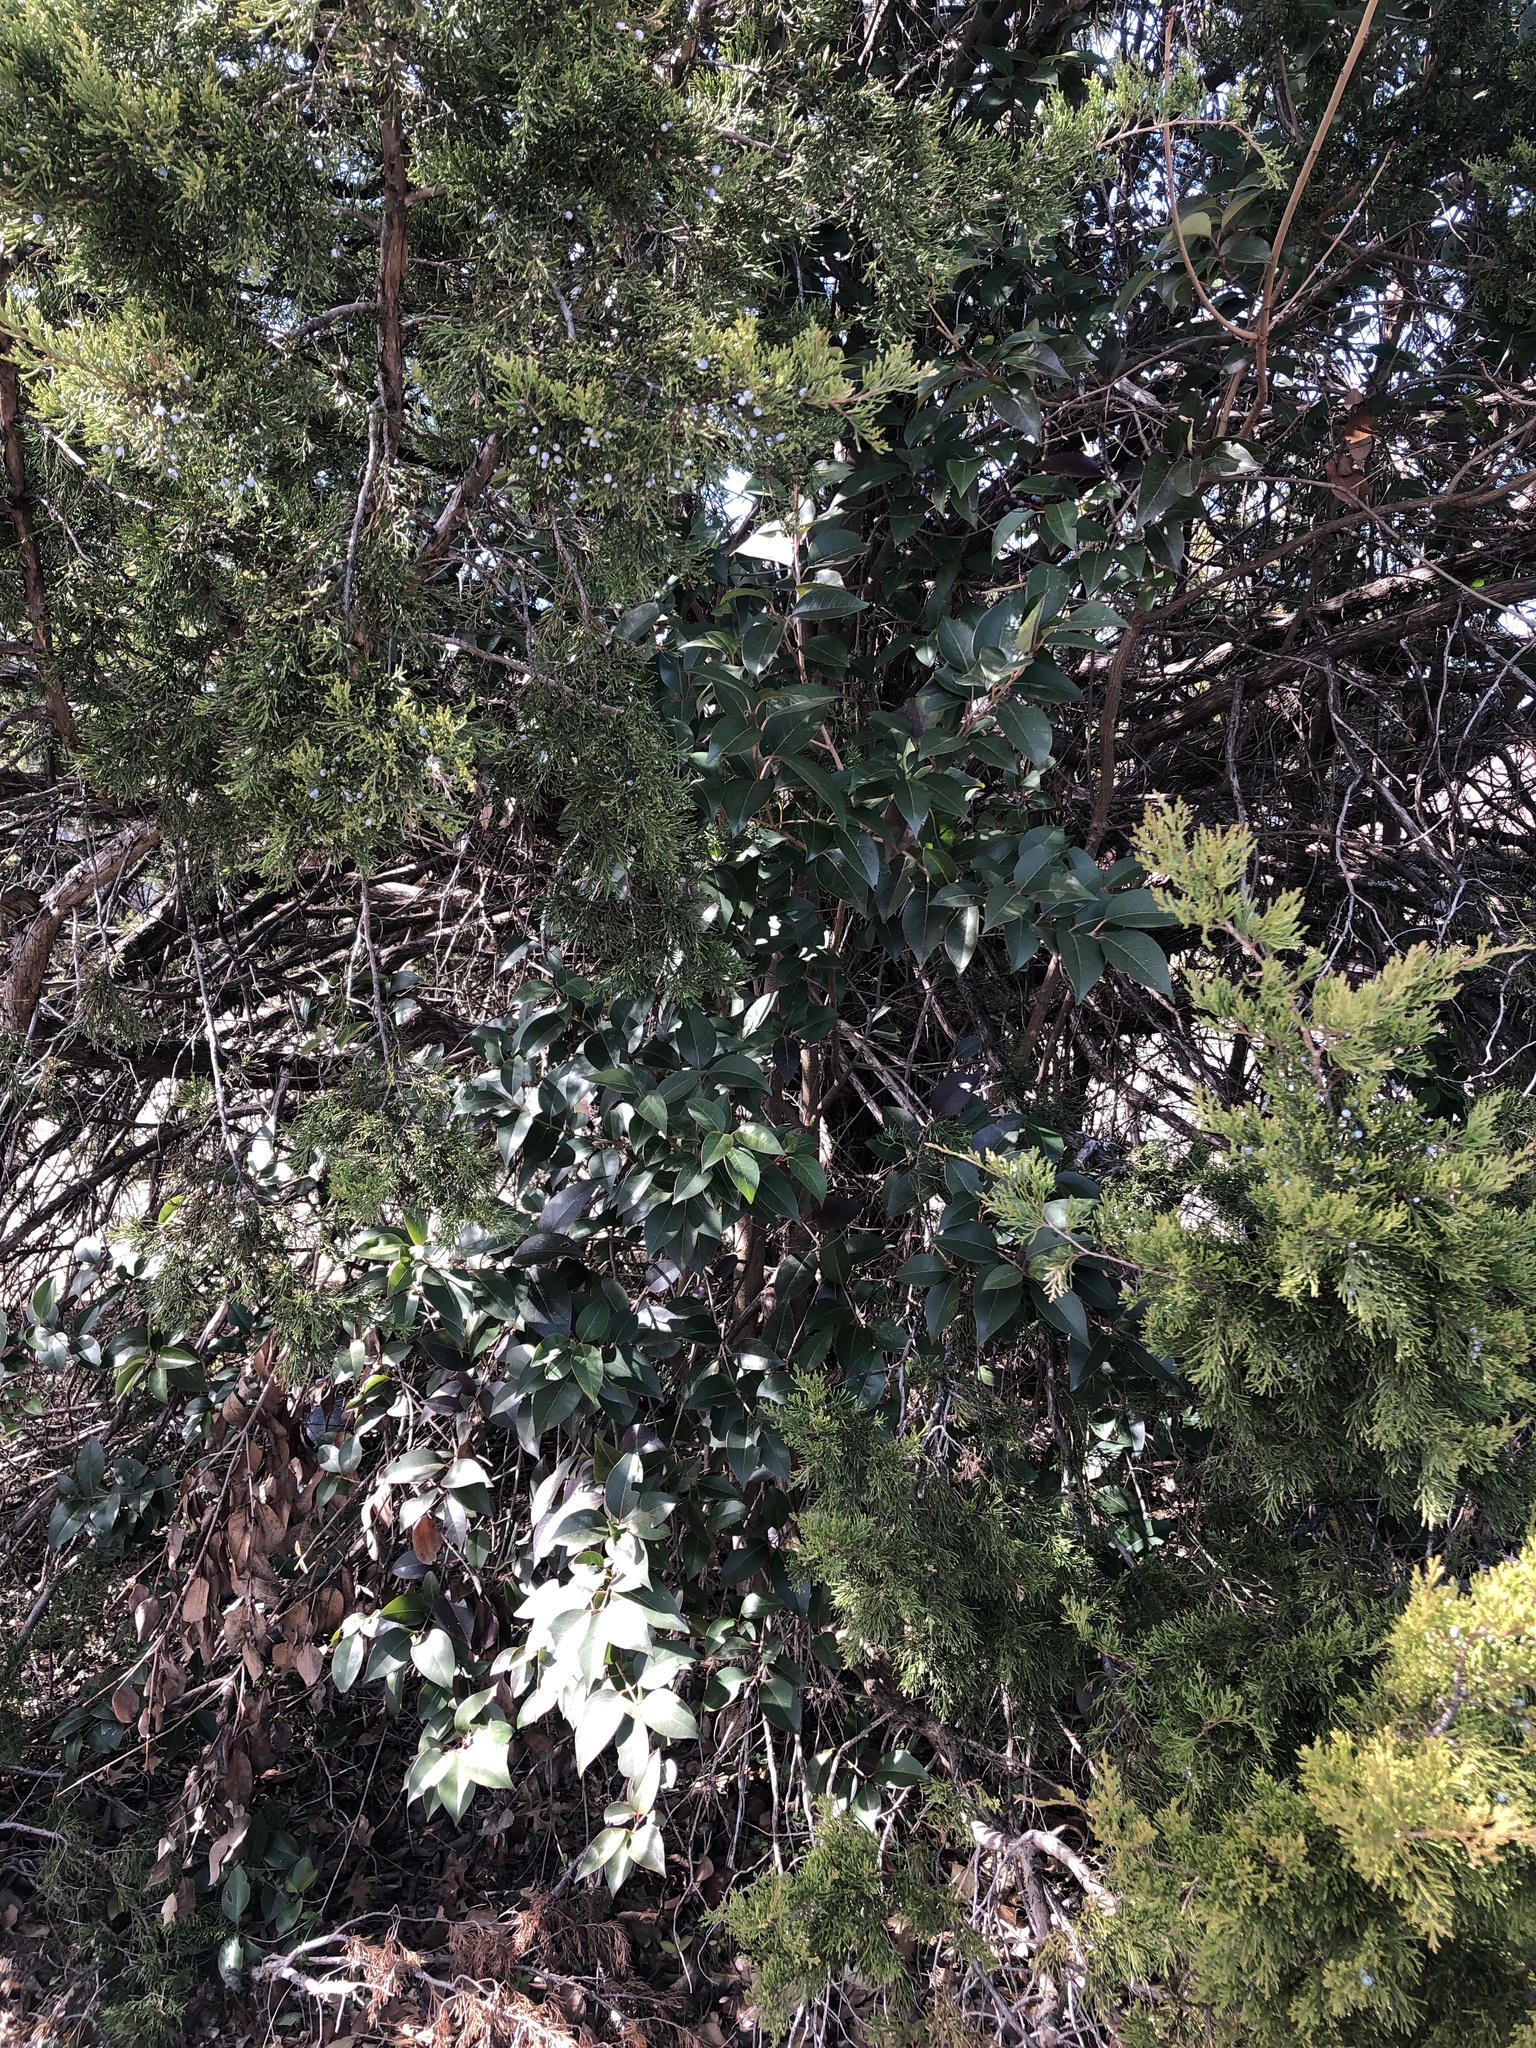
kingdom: Plantae
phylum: Tracheophyta
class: Magnoliopsida
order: Lamiales
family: Oleaceae
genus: Ligustrum
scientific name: Ligustrum lucidum
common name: Glossy privet
